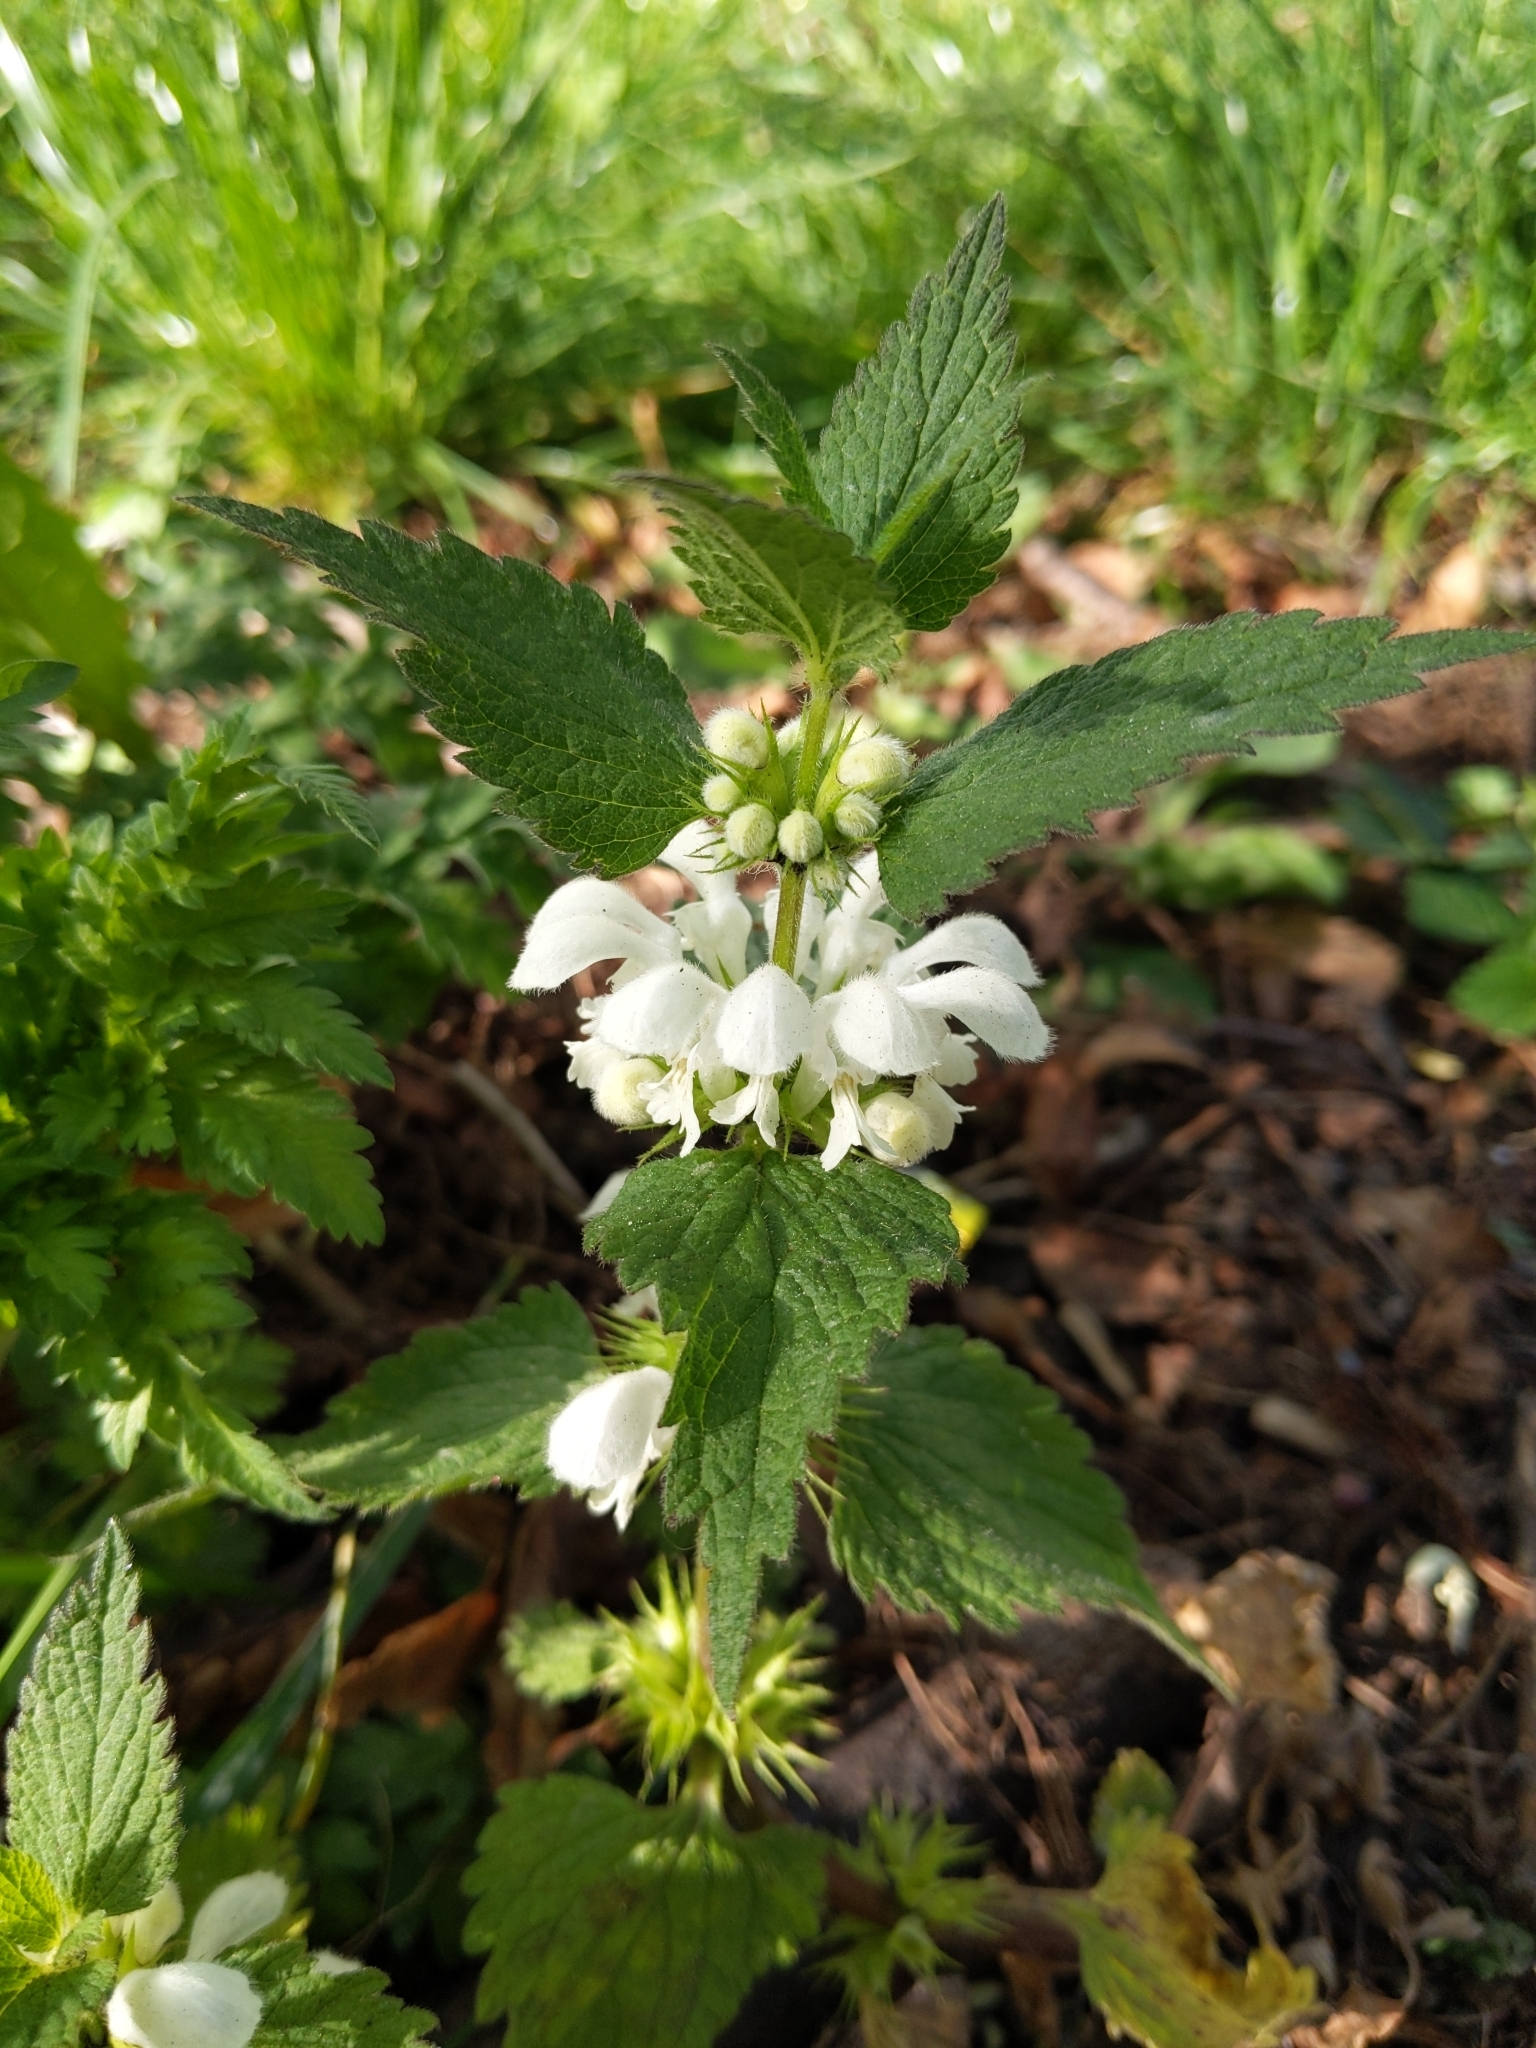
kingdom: Plantae
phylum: Tracheophyta
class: Magnoliopsida
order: Lamiales
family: Lamiaceae
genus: Lamium
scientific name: Lamium album
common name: White dead-nettle
